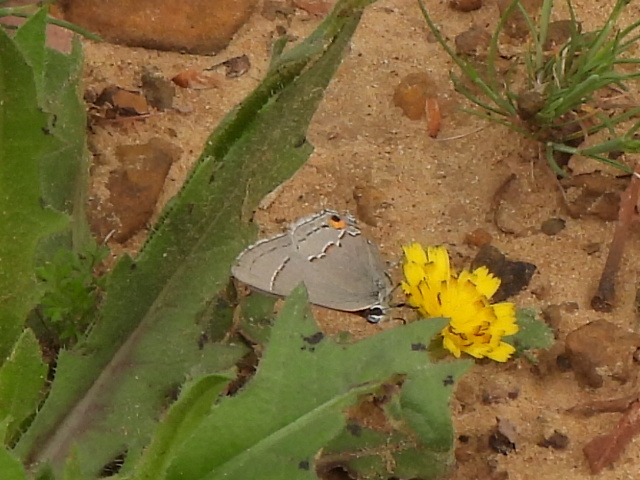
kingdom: Animalia
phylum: Arthropoda
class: Insecta
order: Lepidoptera
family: Lycaenidae
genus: Strymon
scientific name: Strymon melinus
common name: Gray hairstreak
